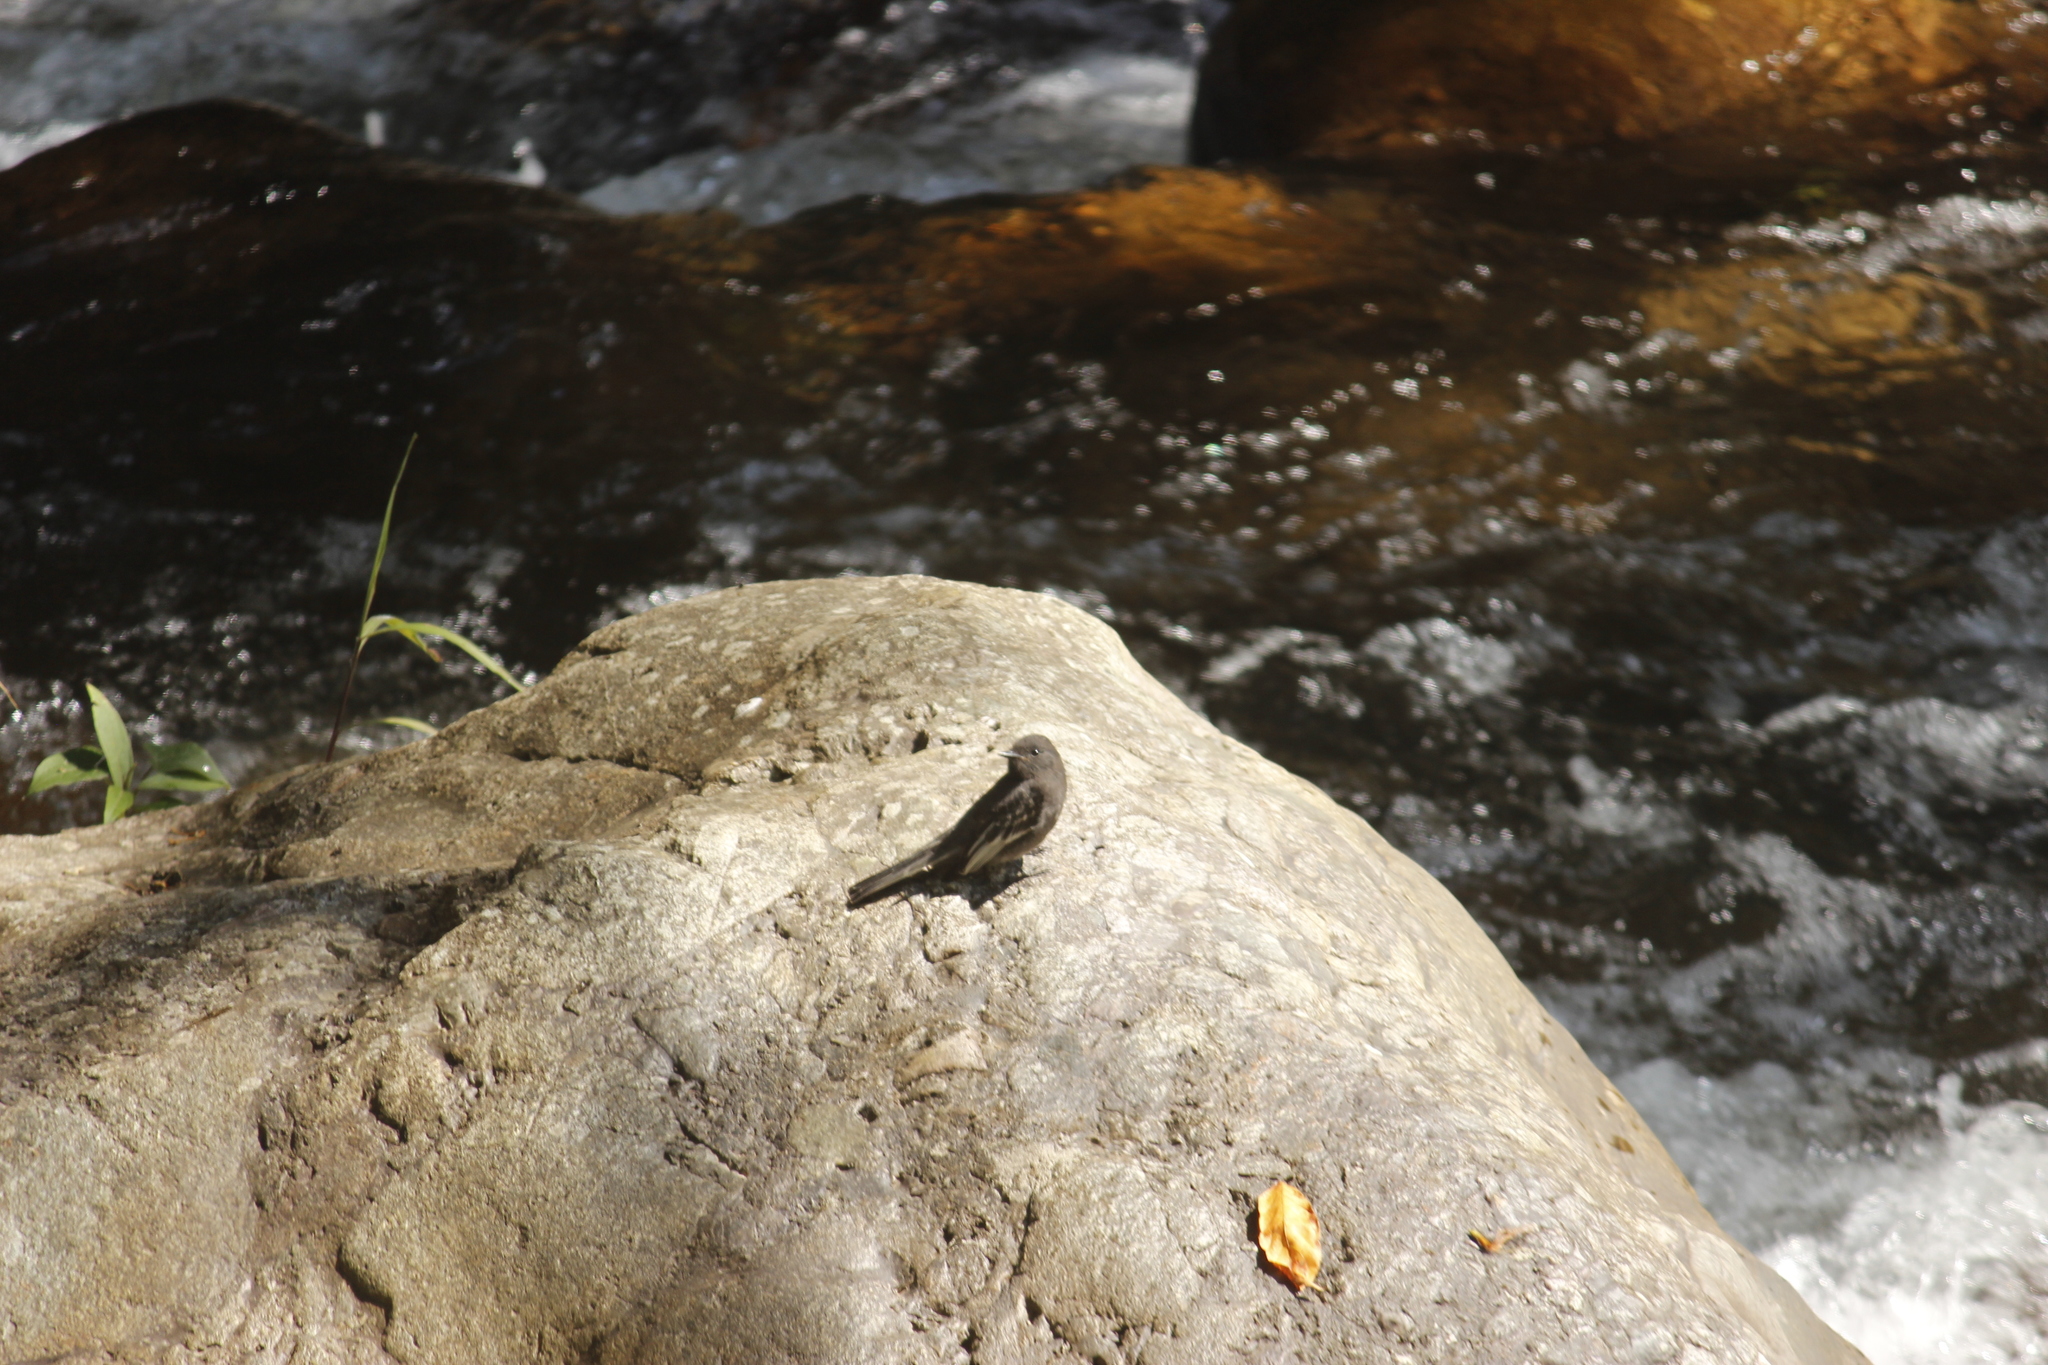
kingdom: Animalia
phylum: Chordata
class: Aves
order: Passeriformes
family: Tyrannidae
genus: Sayornis
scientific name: Sayornis nigricans
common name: Black phoebe
